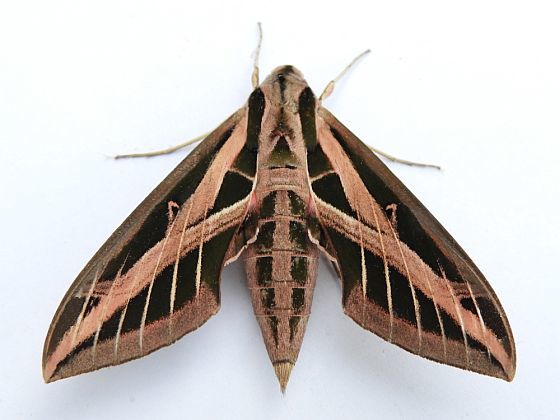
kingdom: Animalia
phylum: Arthropoda
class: Insecta
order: Lepidoptera
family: Sphingidae
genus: Eumorpha
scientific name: Eumorpha fasciatus
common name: Banded sphinx
